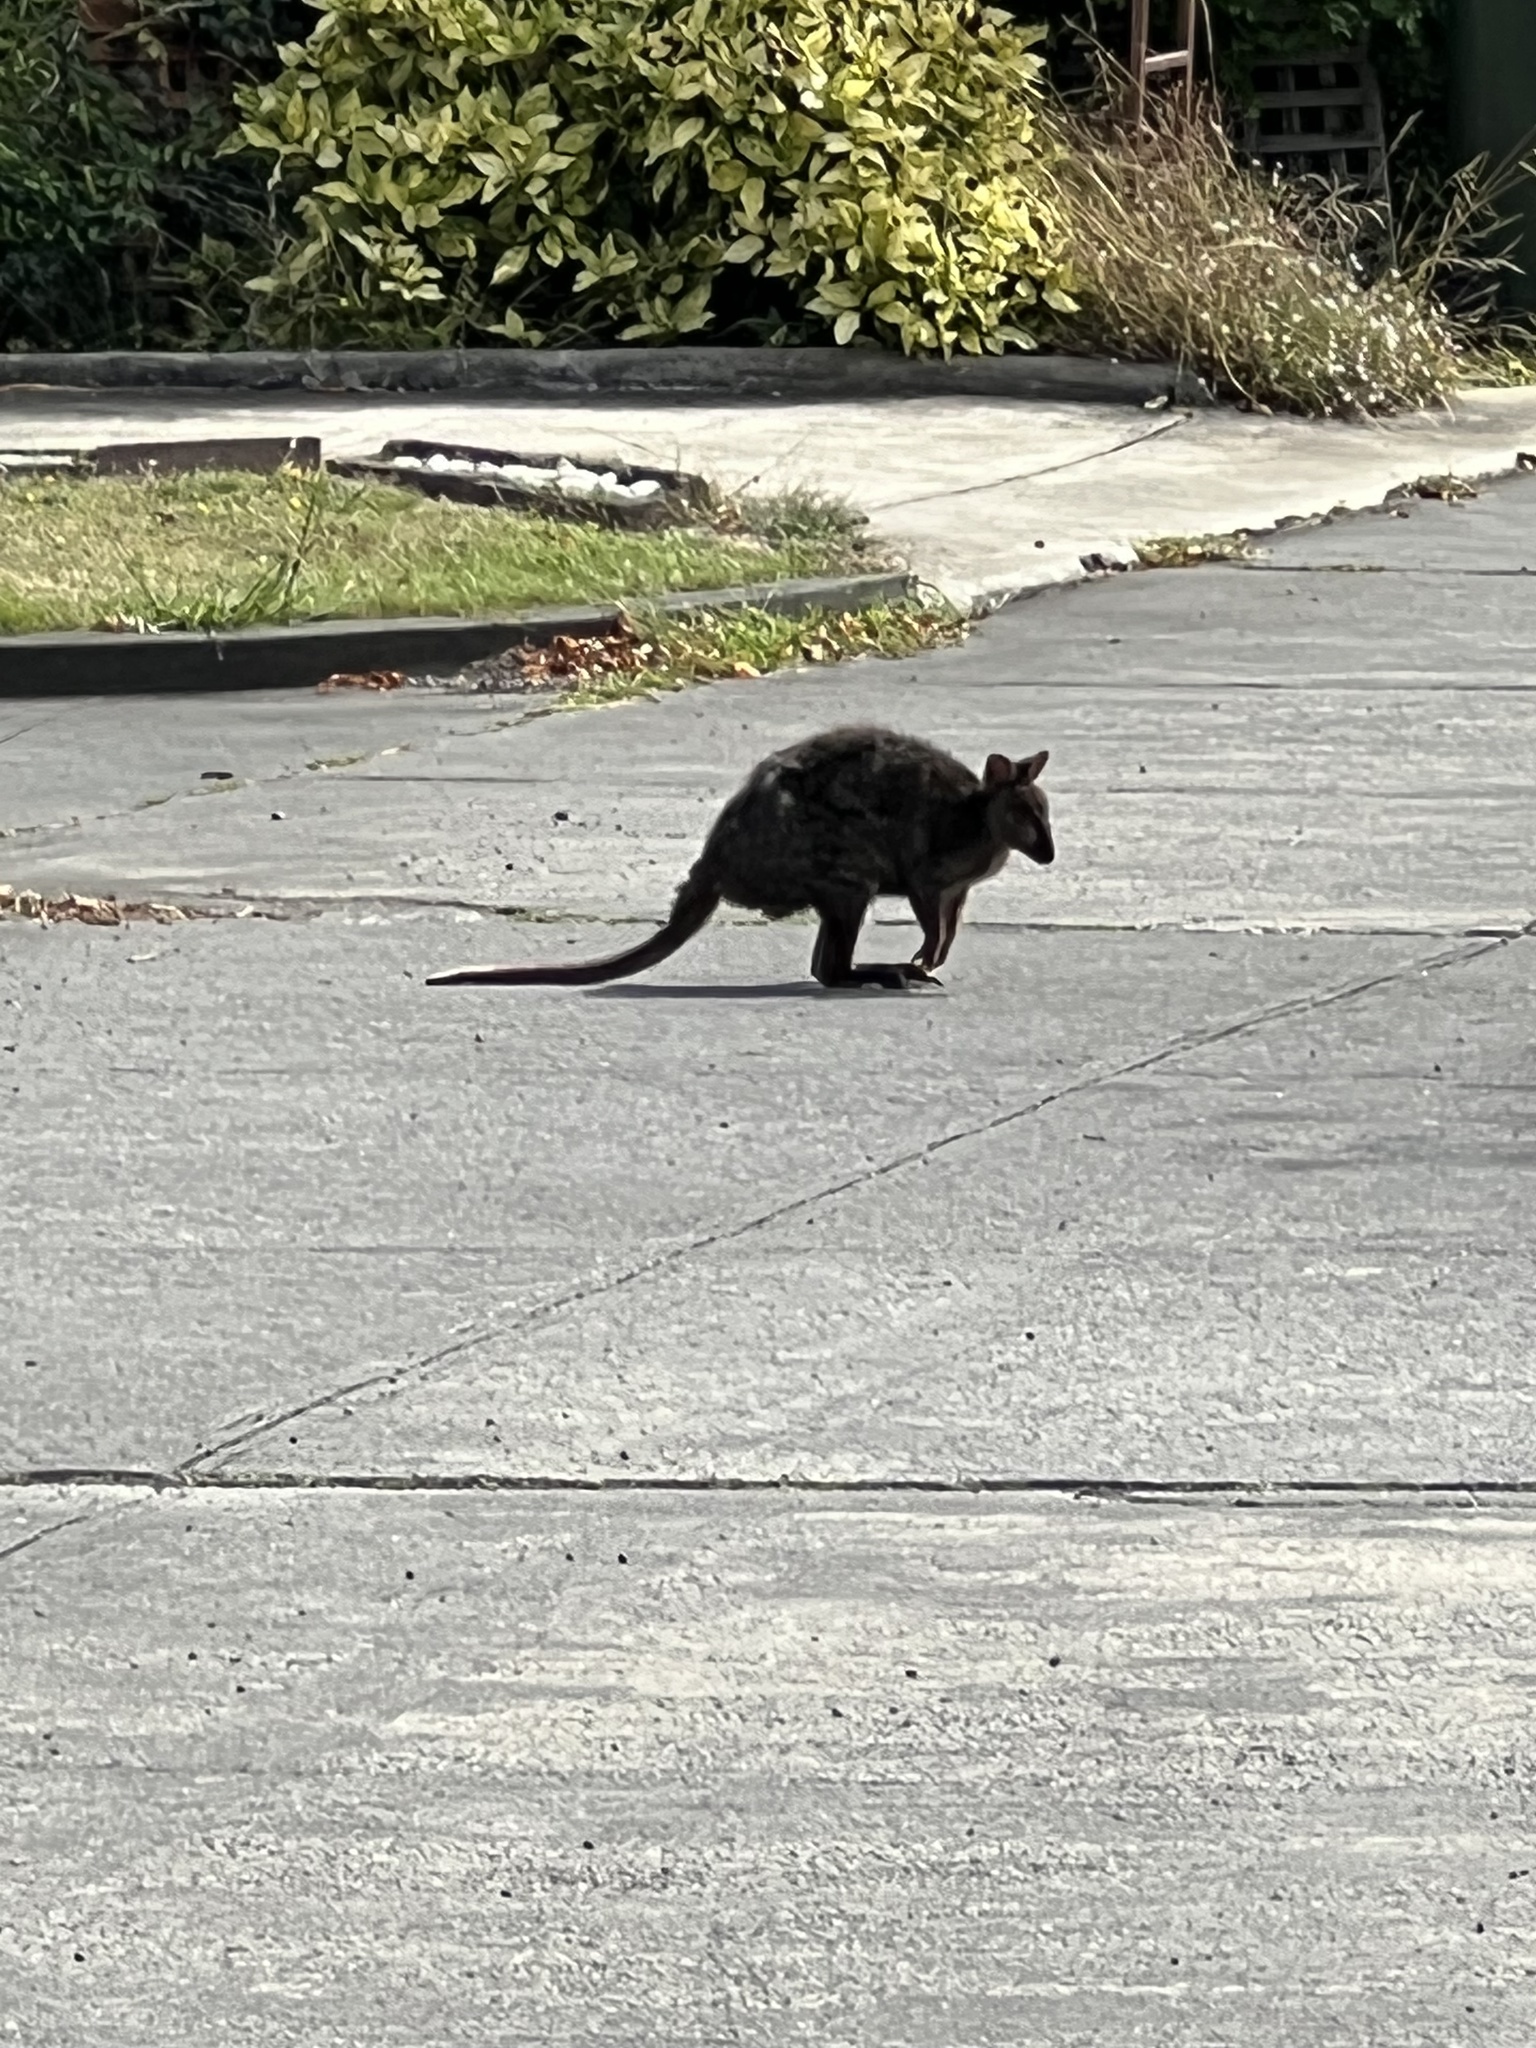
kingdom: Animalia
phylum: Chordata
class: Mammalia
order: Diprotodontia
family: Macropodidae
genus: Thylogale
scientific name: Thylogale billardierii
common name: Tasmanian pademelon
